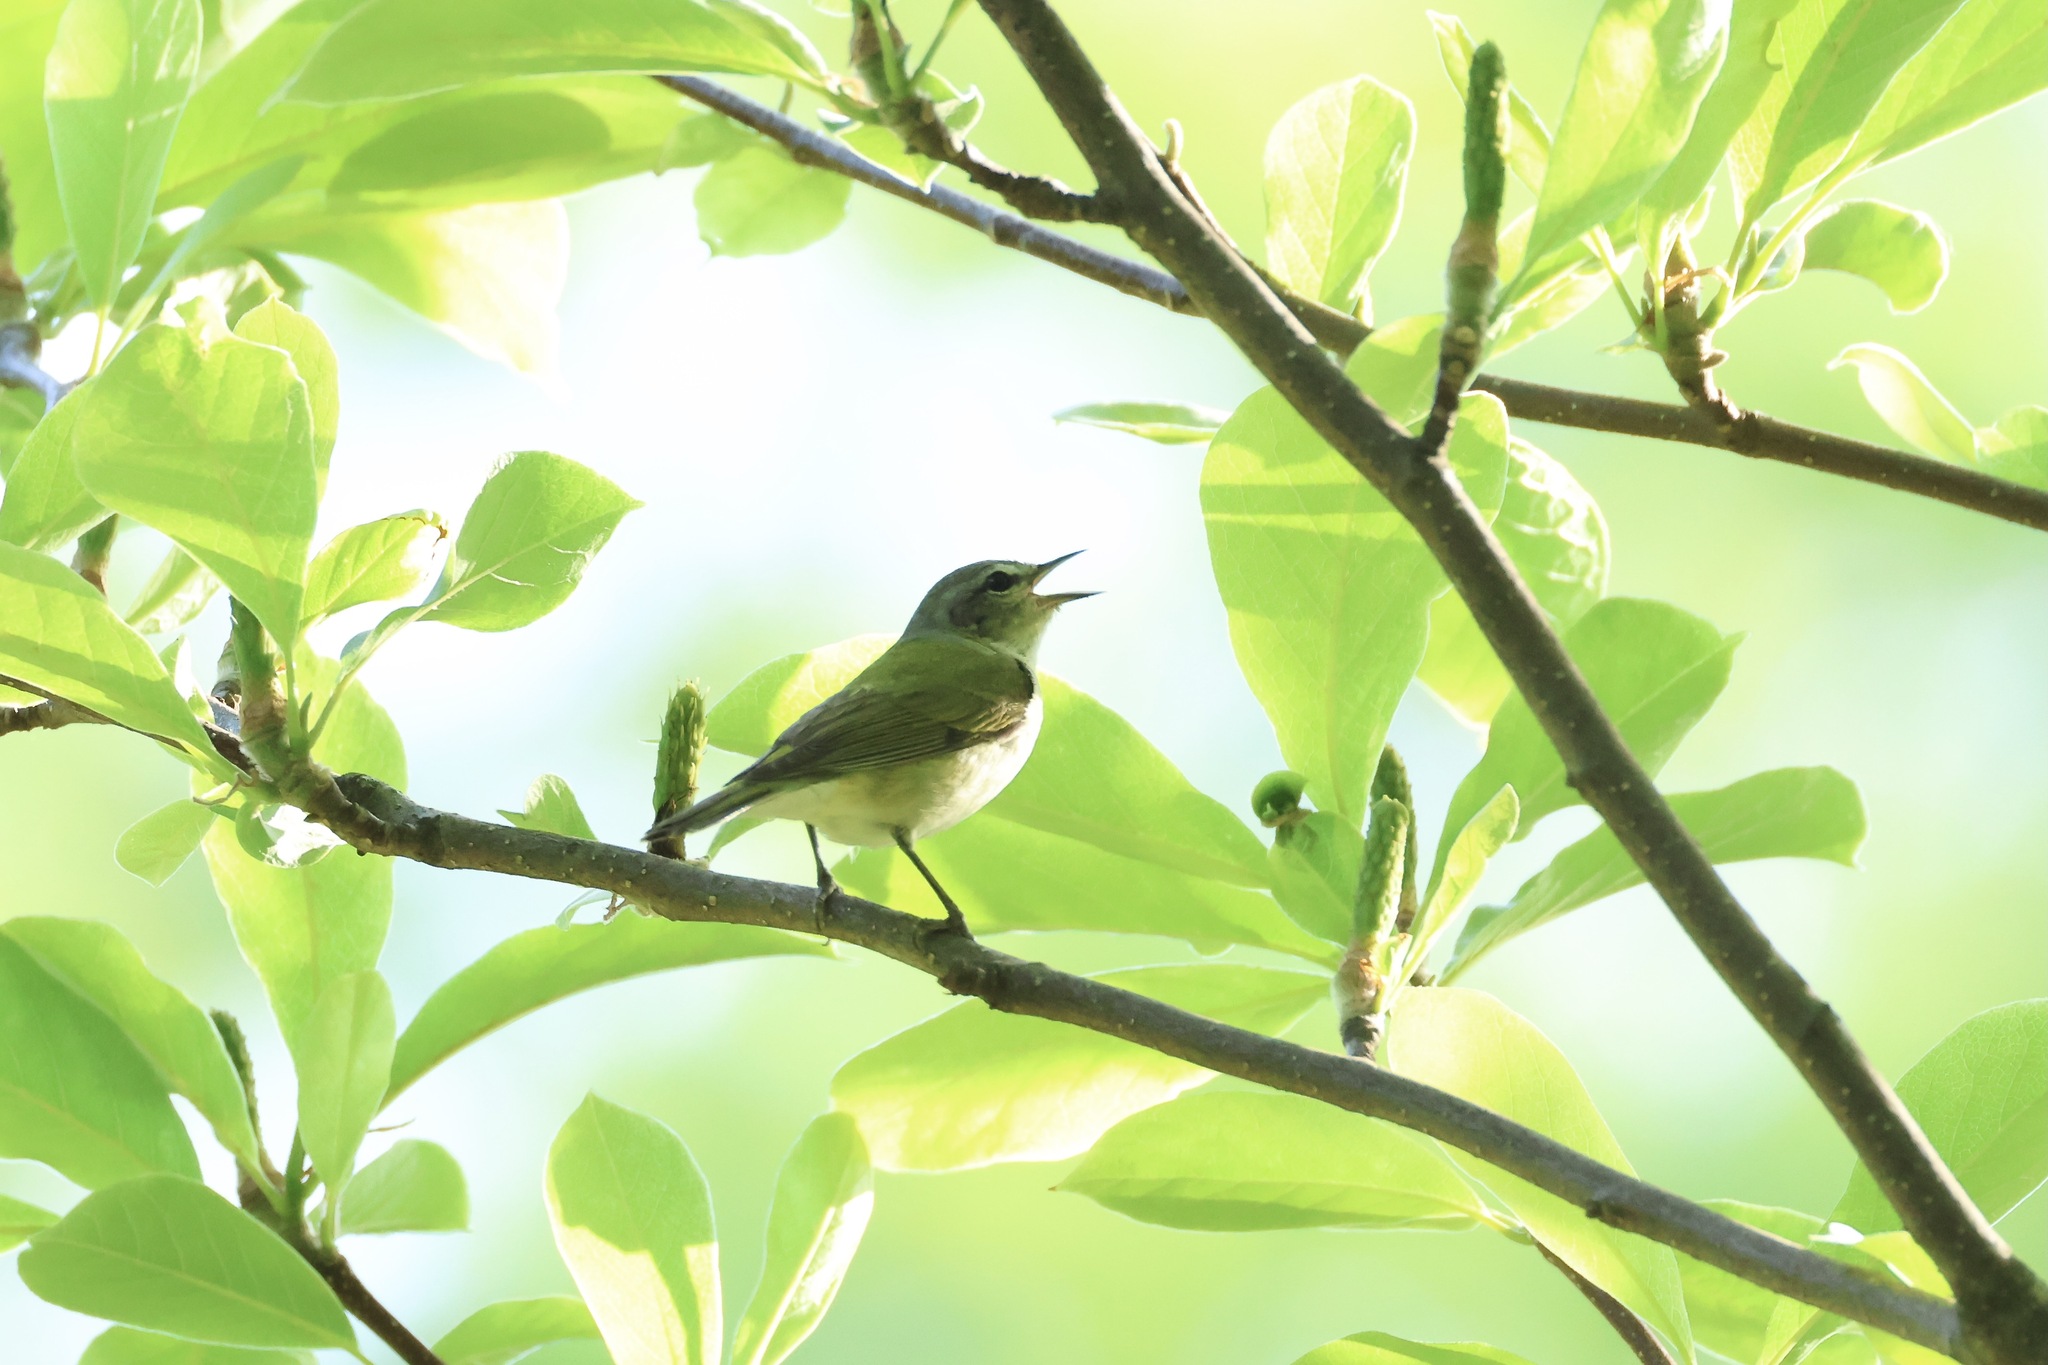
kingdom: Animalia
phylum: Chordata
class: Aves
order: Passeriformes
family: Parulidae
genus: Leiothlypis
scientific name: Leiothlypis peregrina
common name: Tennessee warbler
